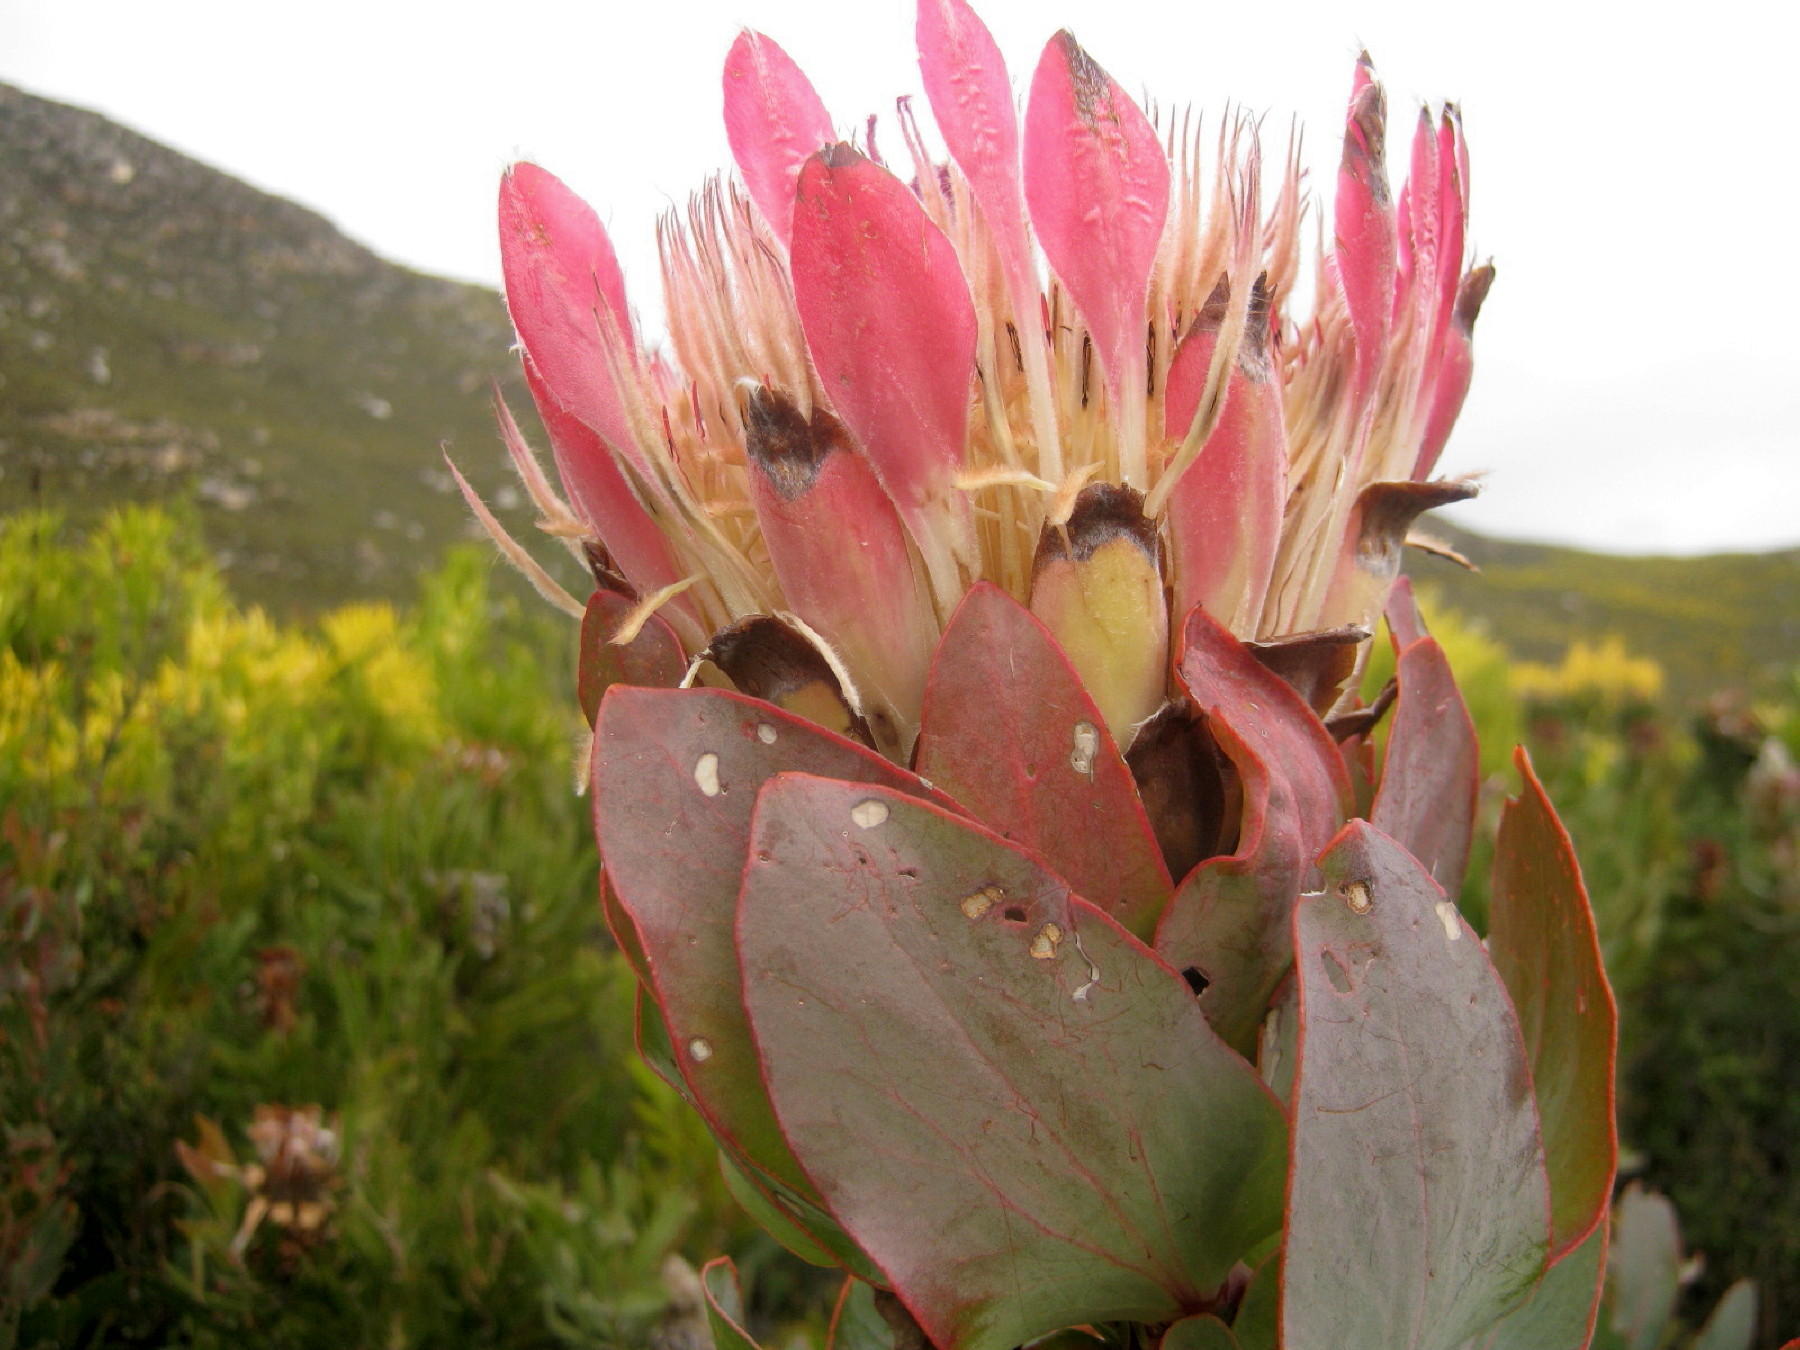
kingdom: Plantae
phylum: Tracheophyta
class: Magnoliopsida
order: Proteales
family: Proteaceae
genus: Protea
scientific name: Protea eximia
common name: Broad-leaved sugarbush
